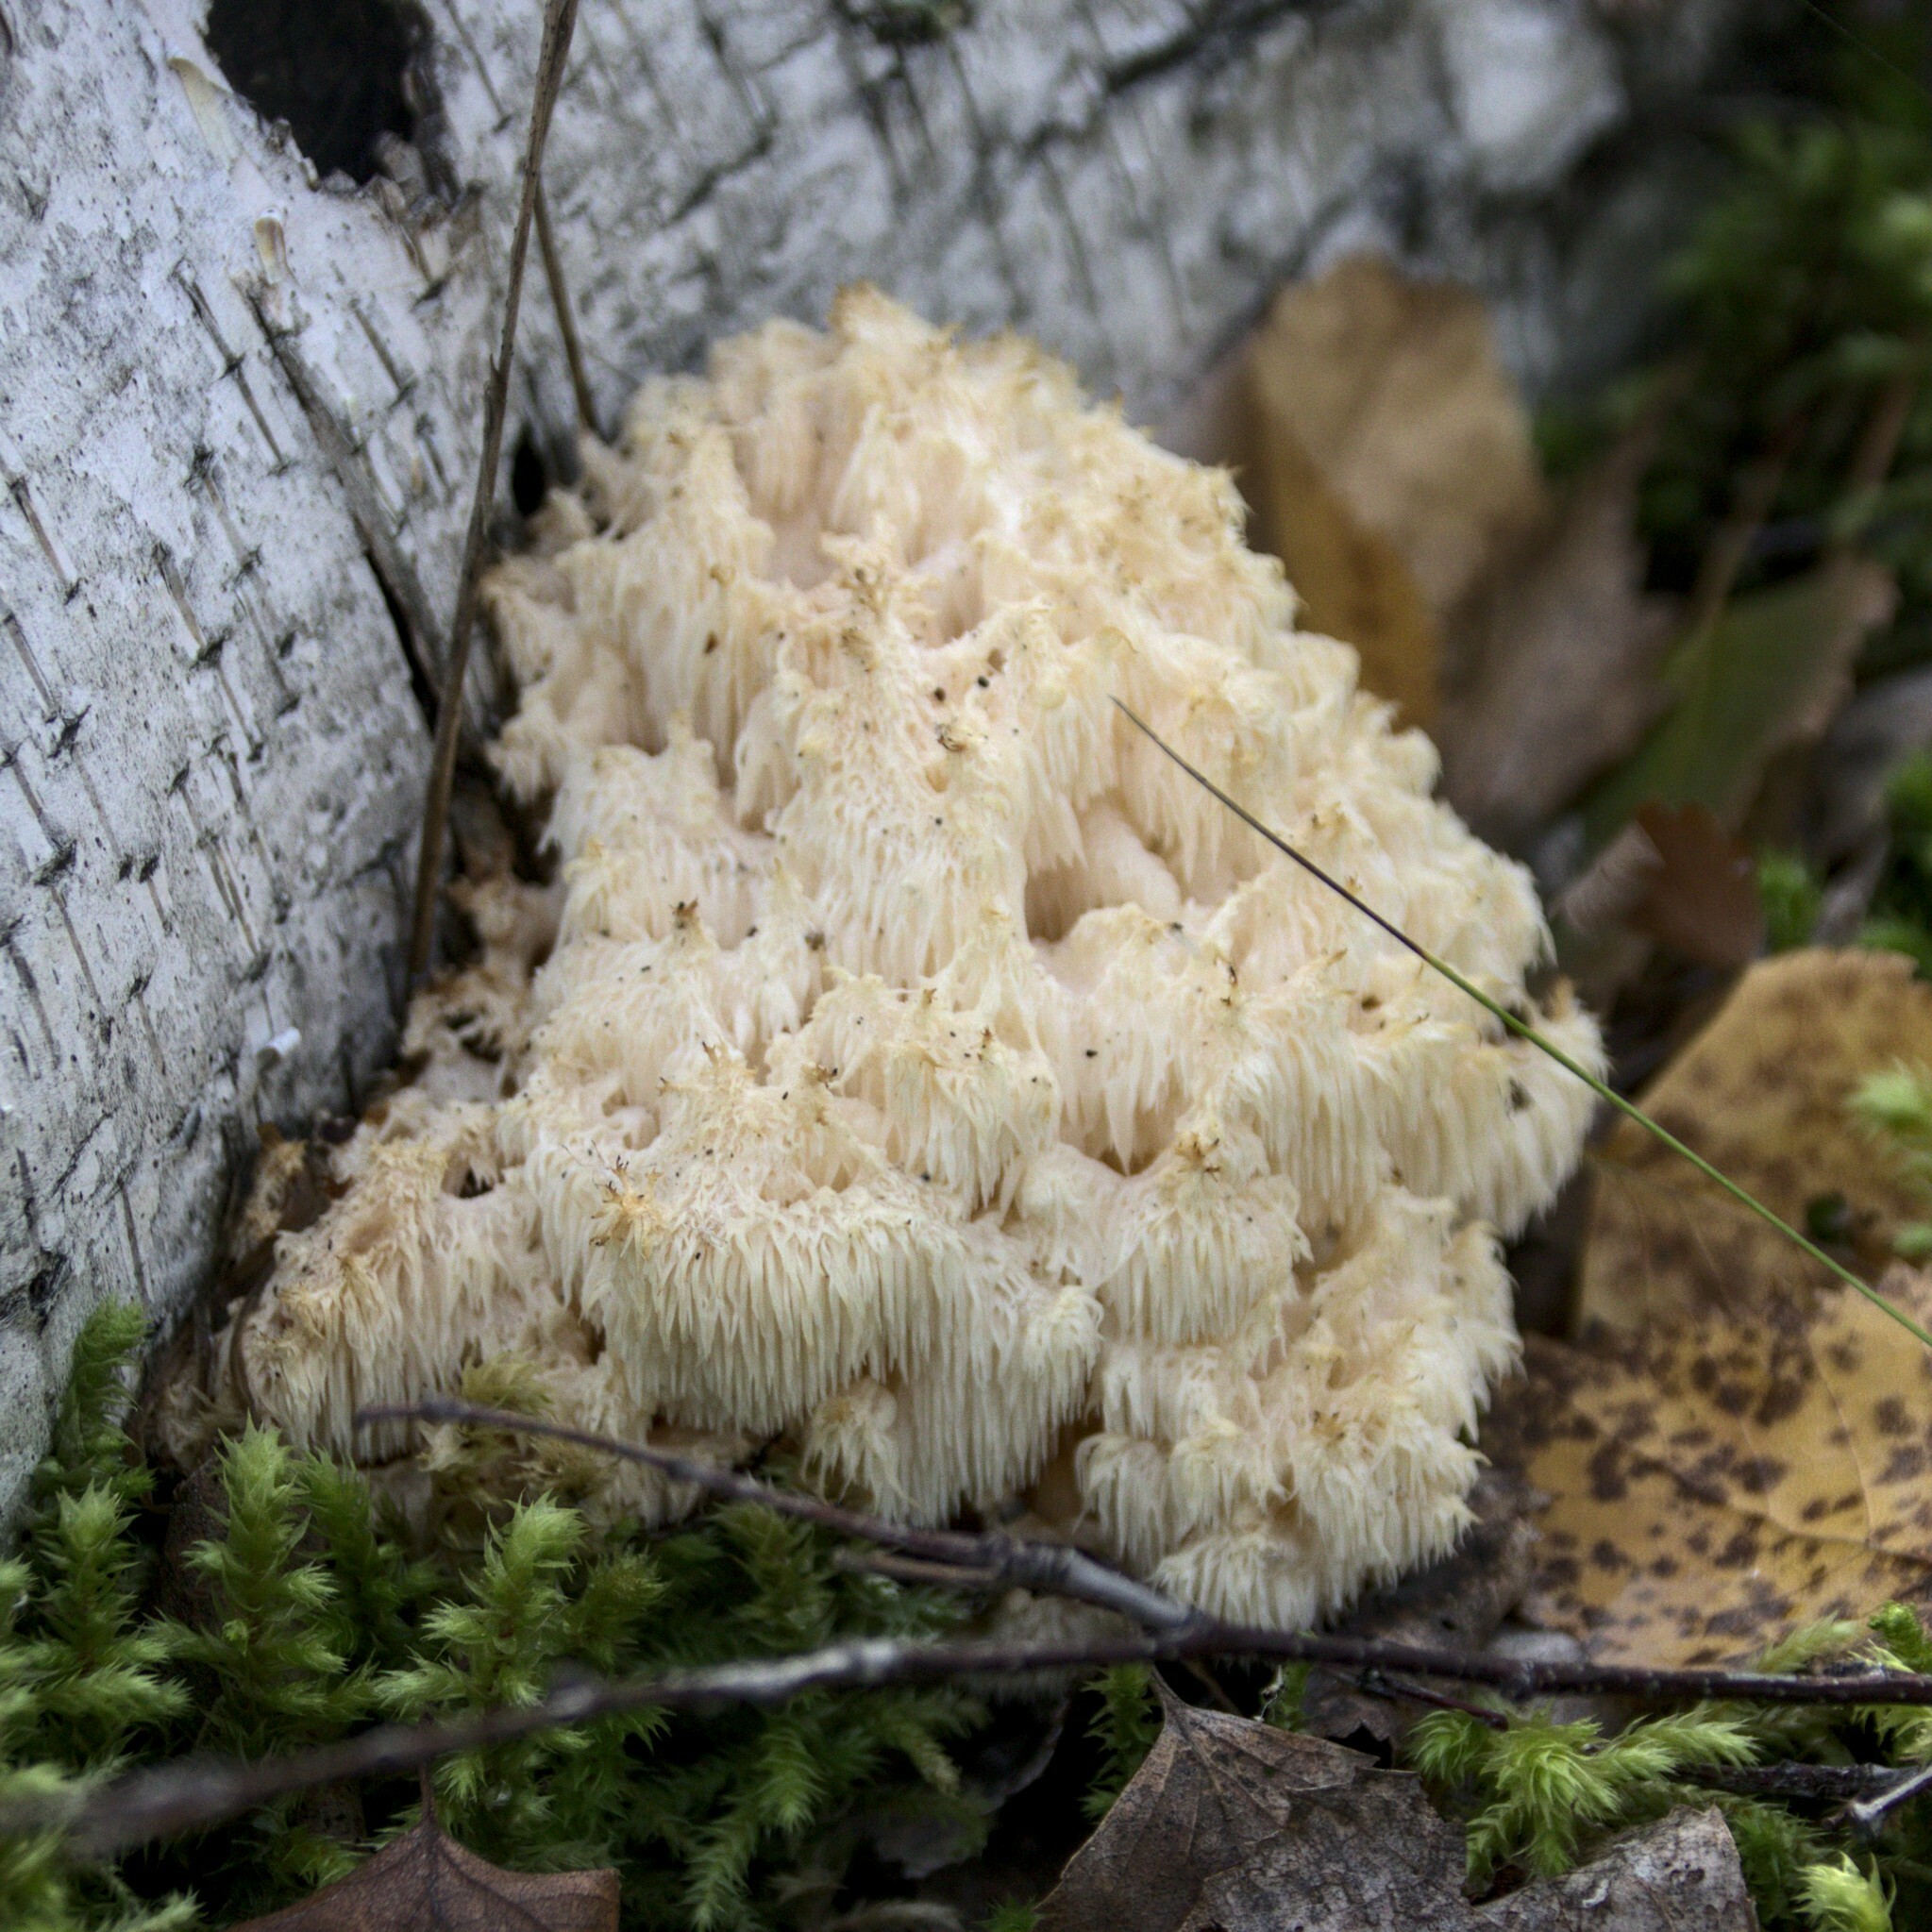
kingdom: Fungi
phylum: Basidiomycota
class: Agaricomycetes
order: Russulales
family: Hericiaceae
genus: Hericium
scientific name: Hericium coralloides
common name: Coral tooth
